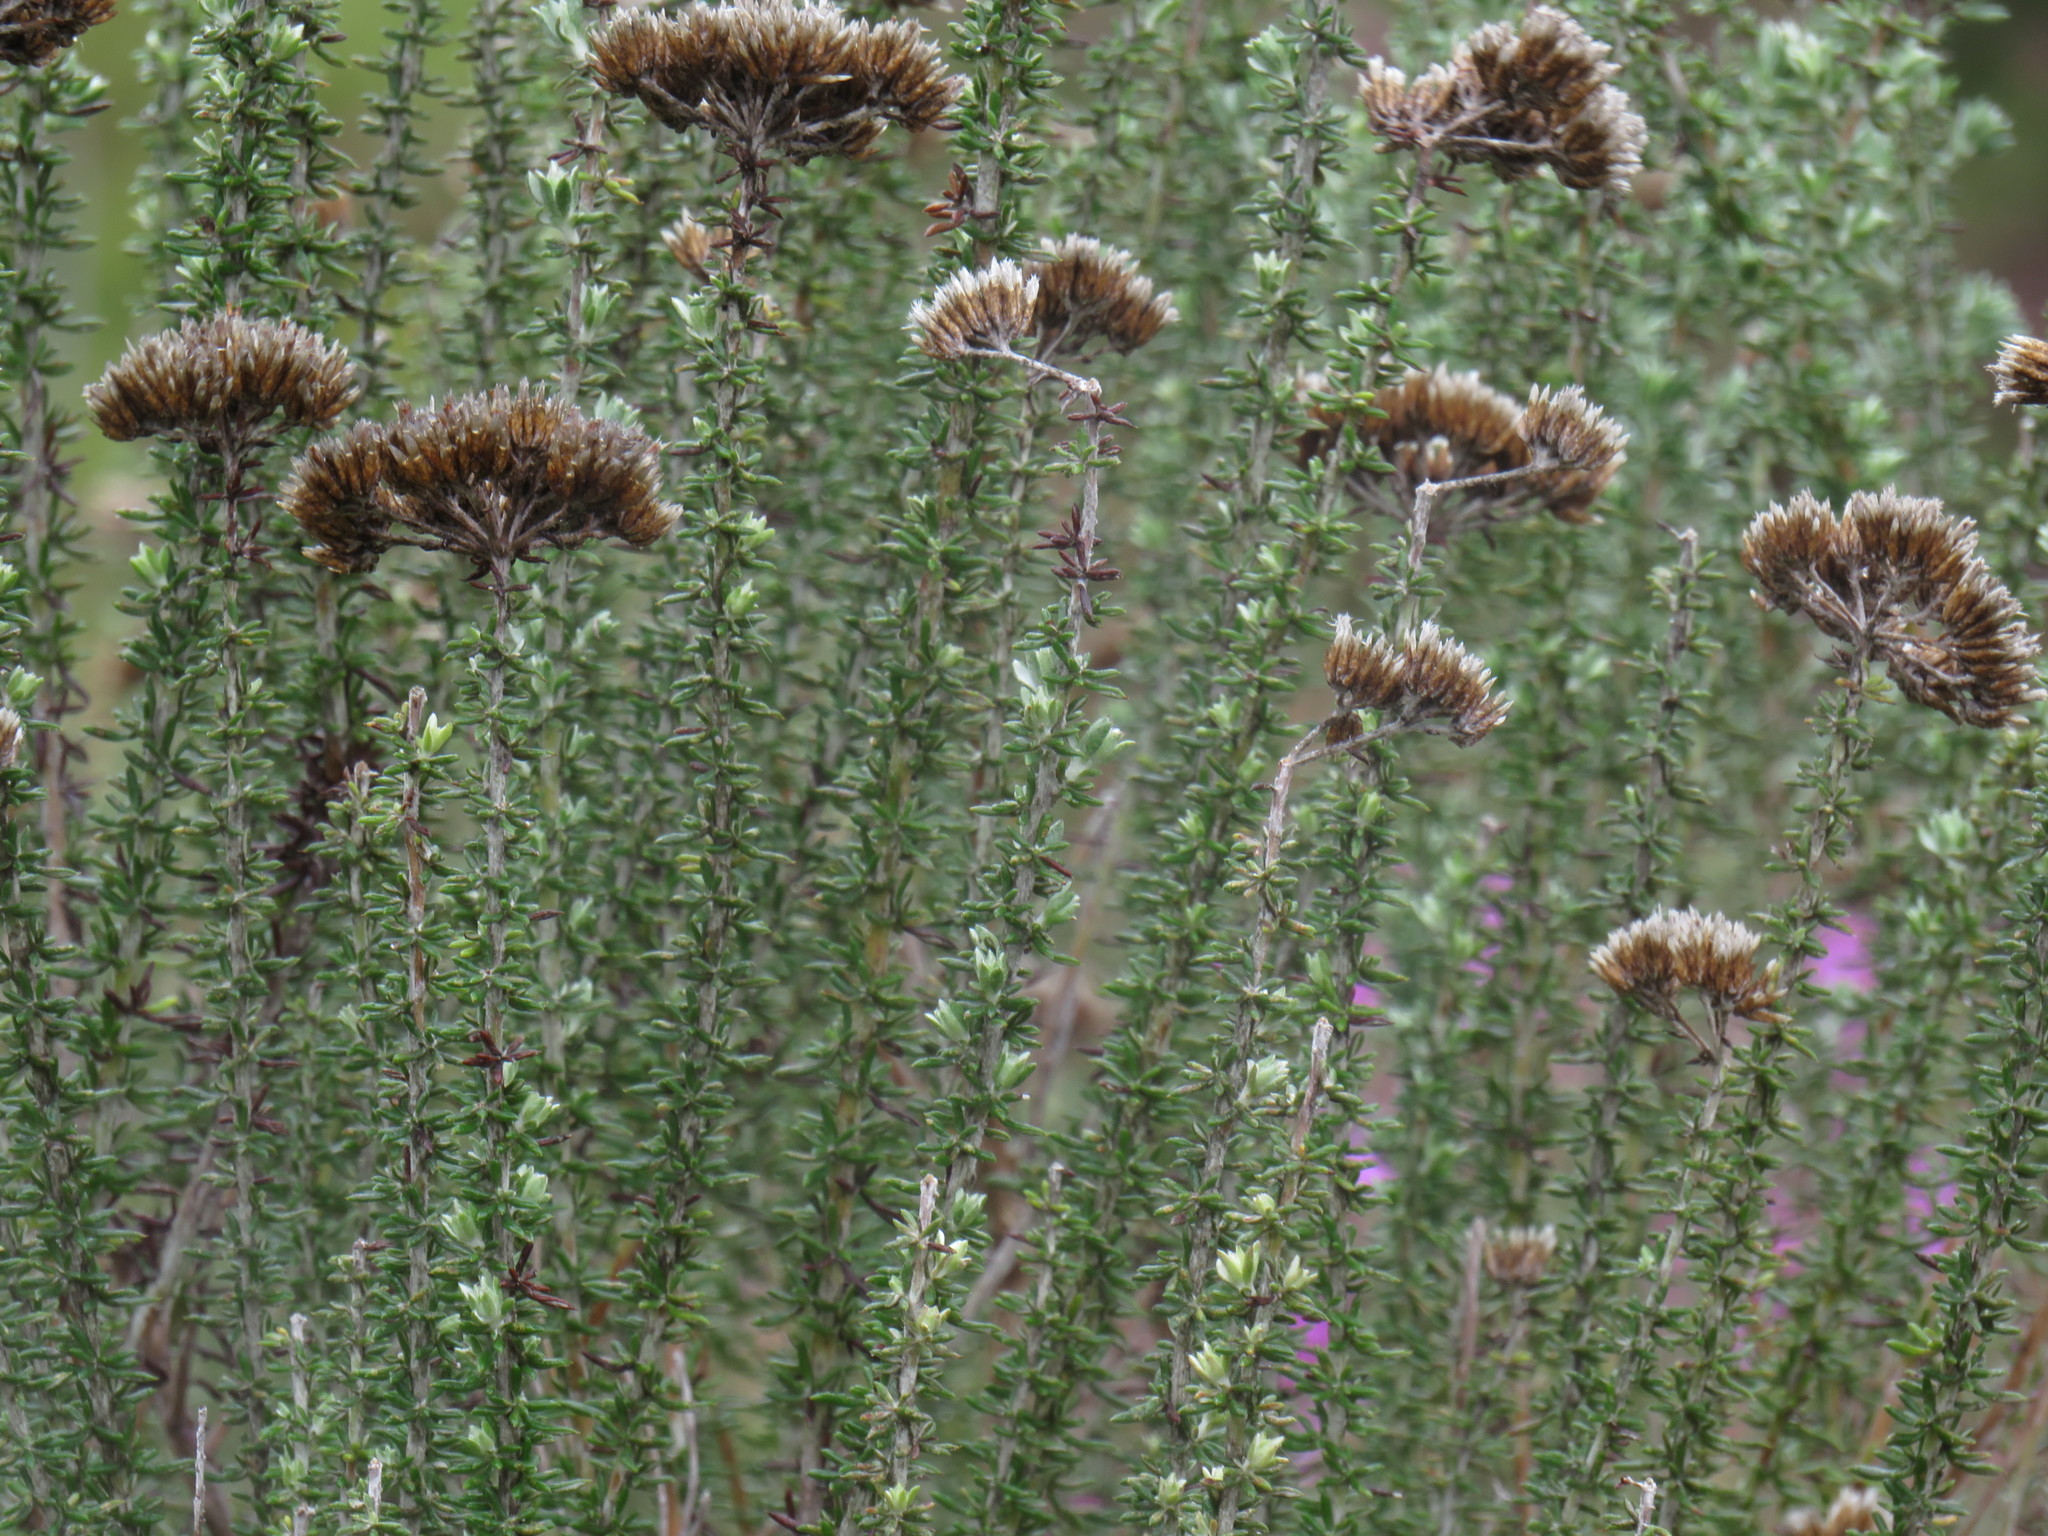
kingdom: Plantae
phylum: Tracheophyta
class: Magnoliopsida
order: Asterales
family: Asteraceae
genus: Metalasia
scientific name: Metalasia densa
